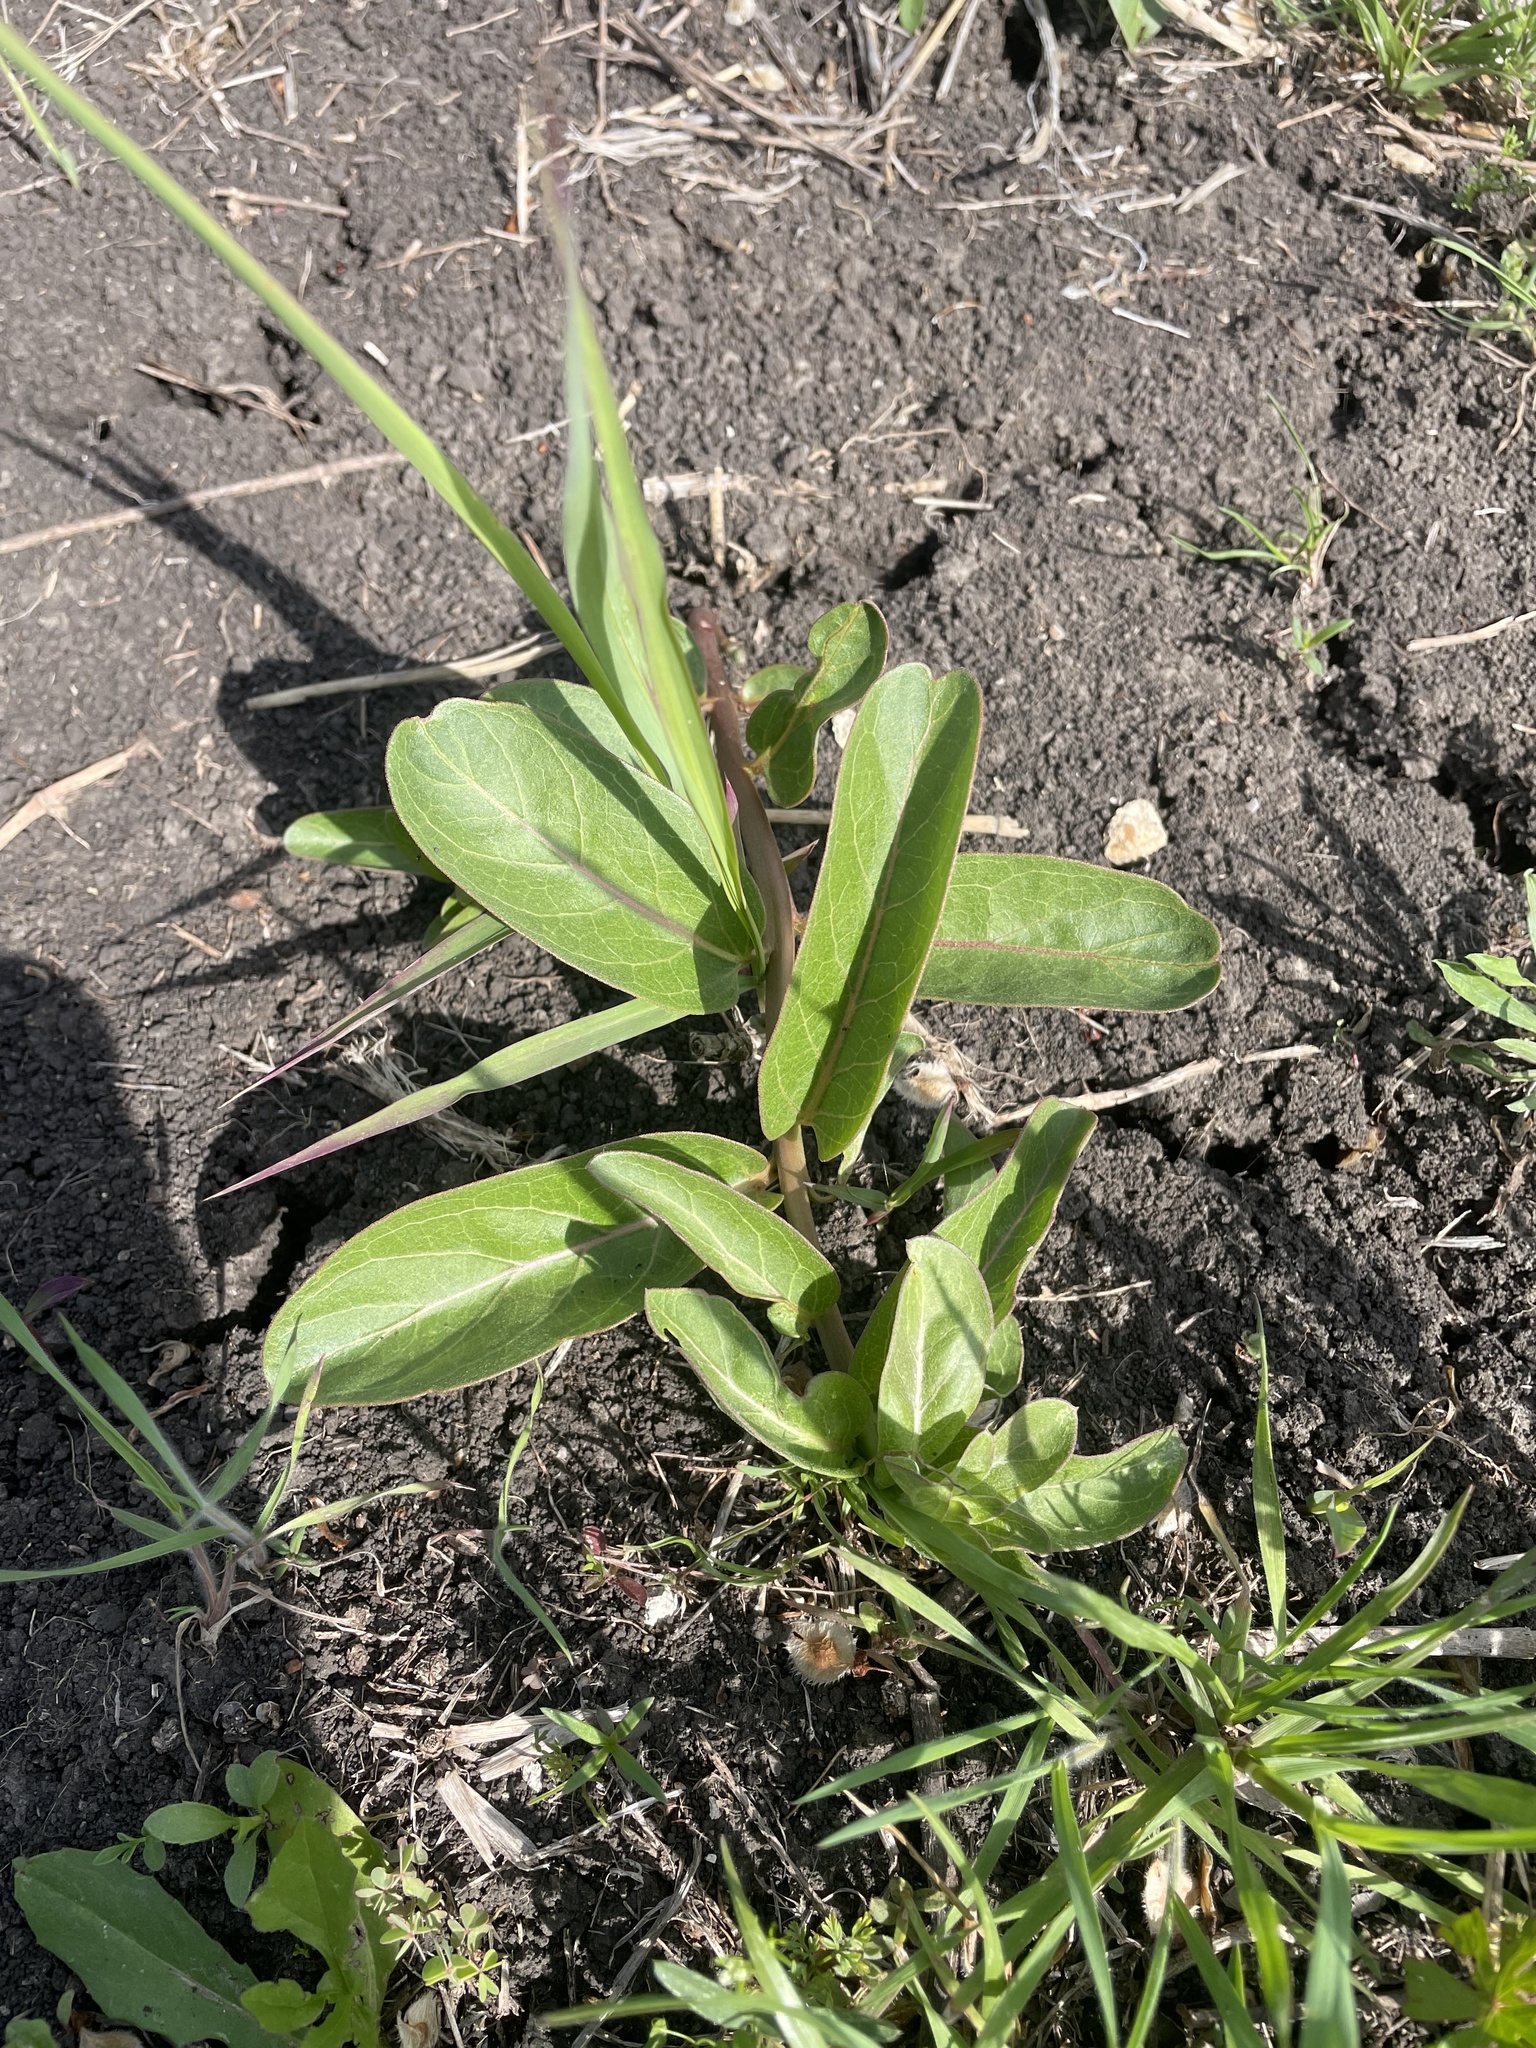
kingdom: Plantae
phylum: Tracheophyta
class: Magnoliopsida
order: Gentianales
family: Apocynaceae
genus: Asclepias
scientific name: Asclepias viridis
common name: Antelope-horns
